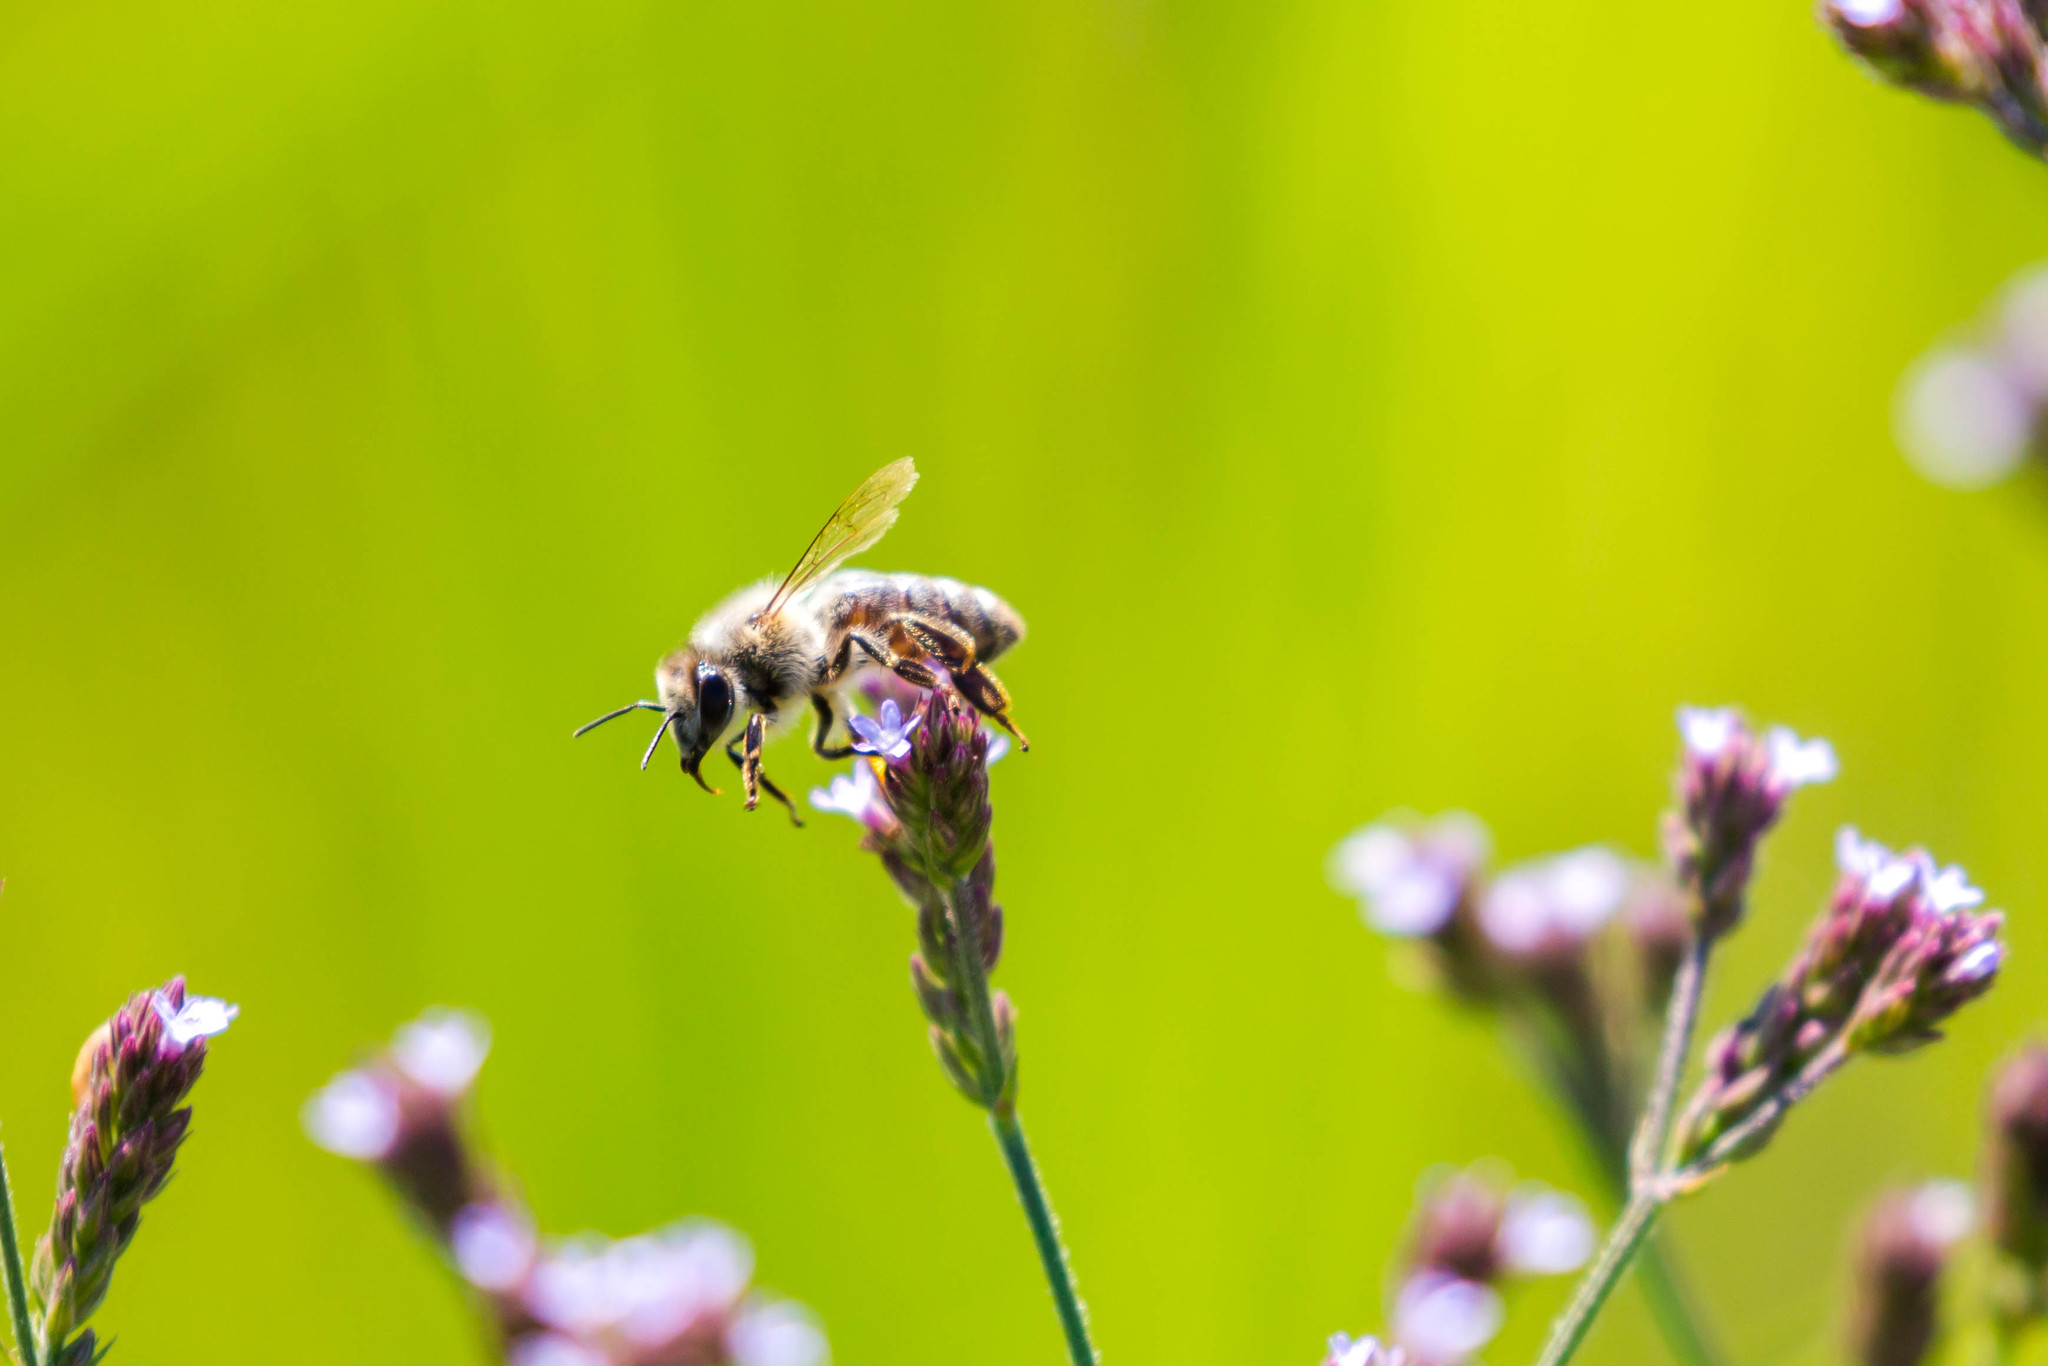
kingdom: Animalia
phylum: Arthropoda
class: Insecta
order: Hymenoptera
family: Apidae
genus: Apis
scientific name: Apis mellifera
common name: Honey bee
